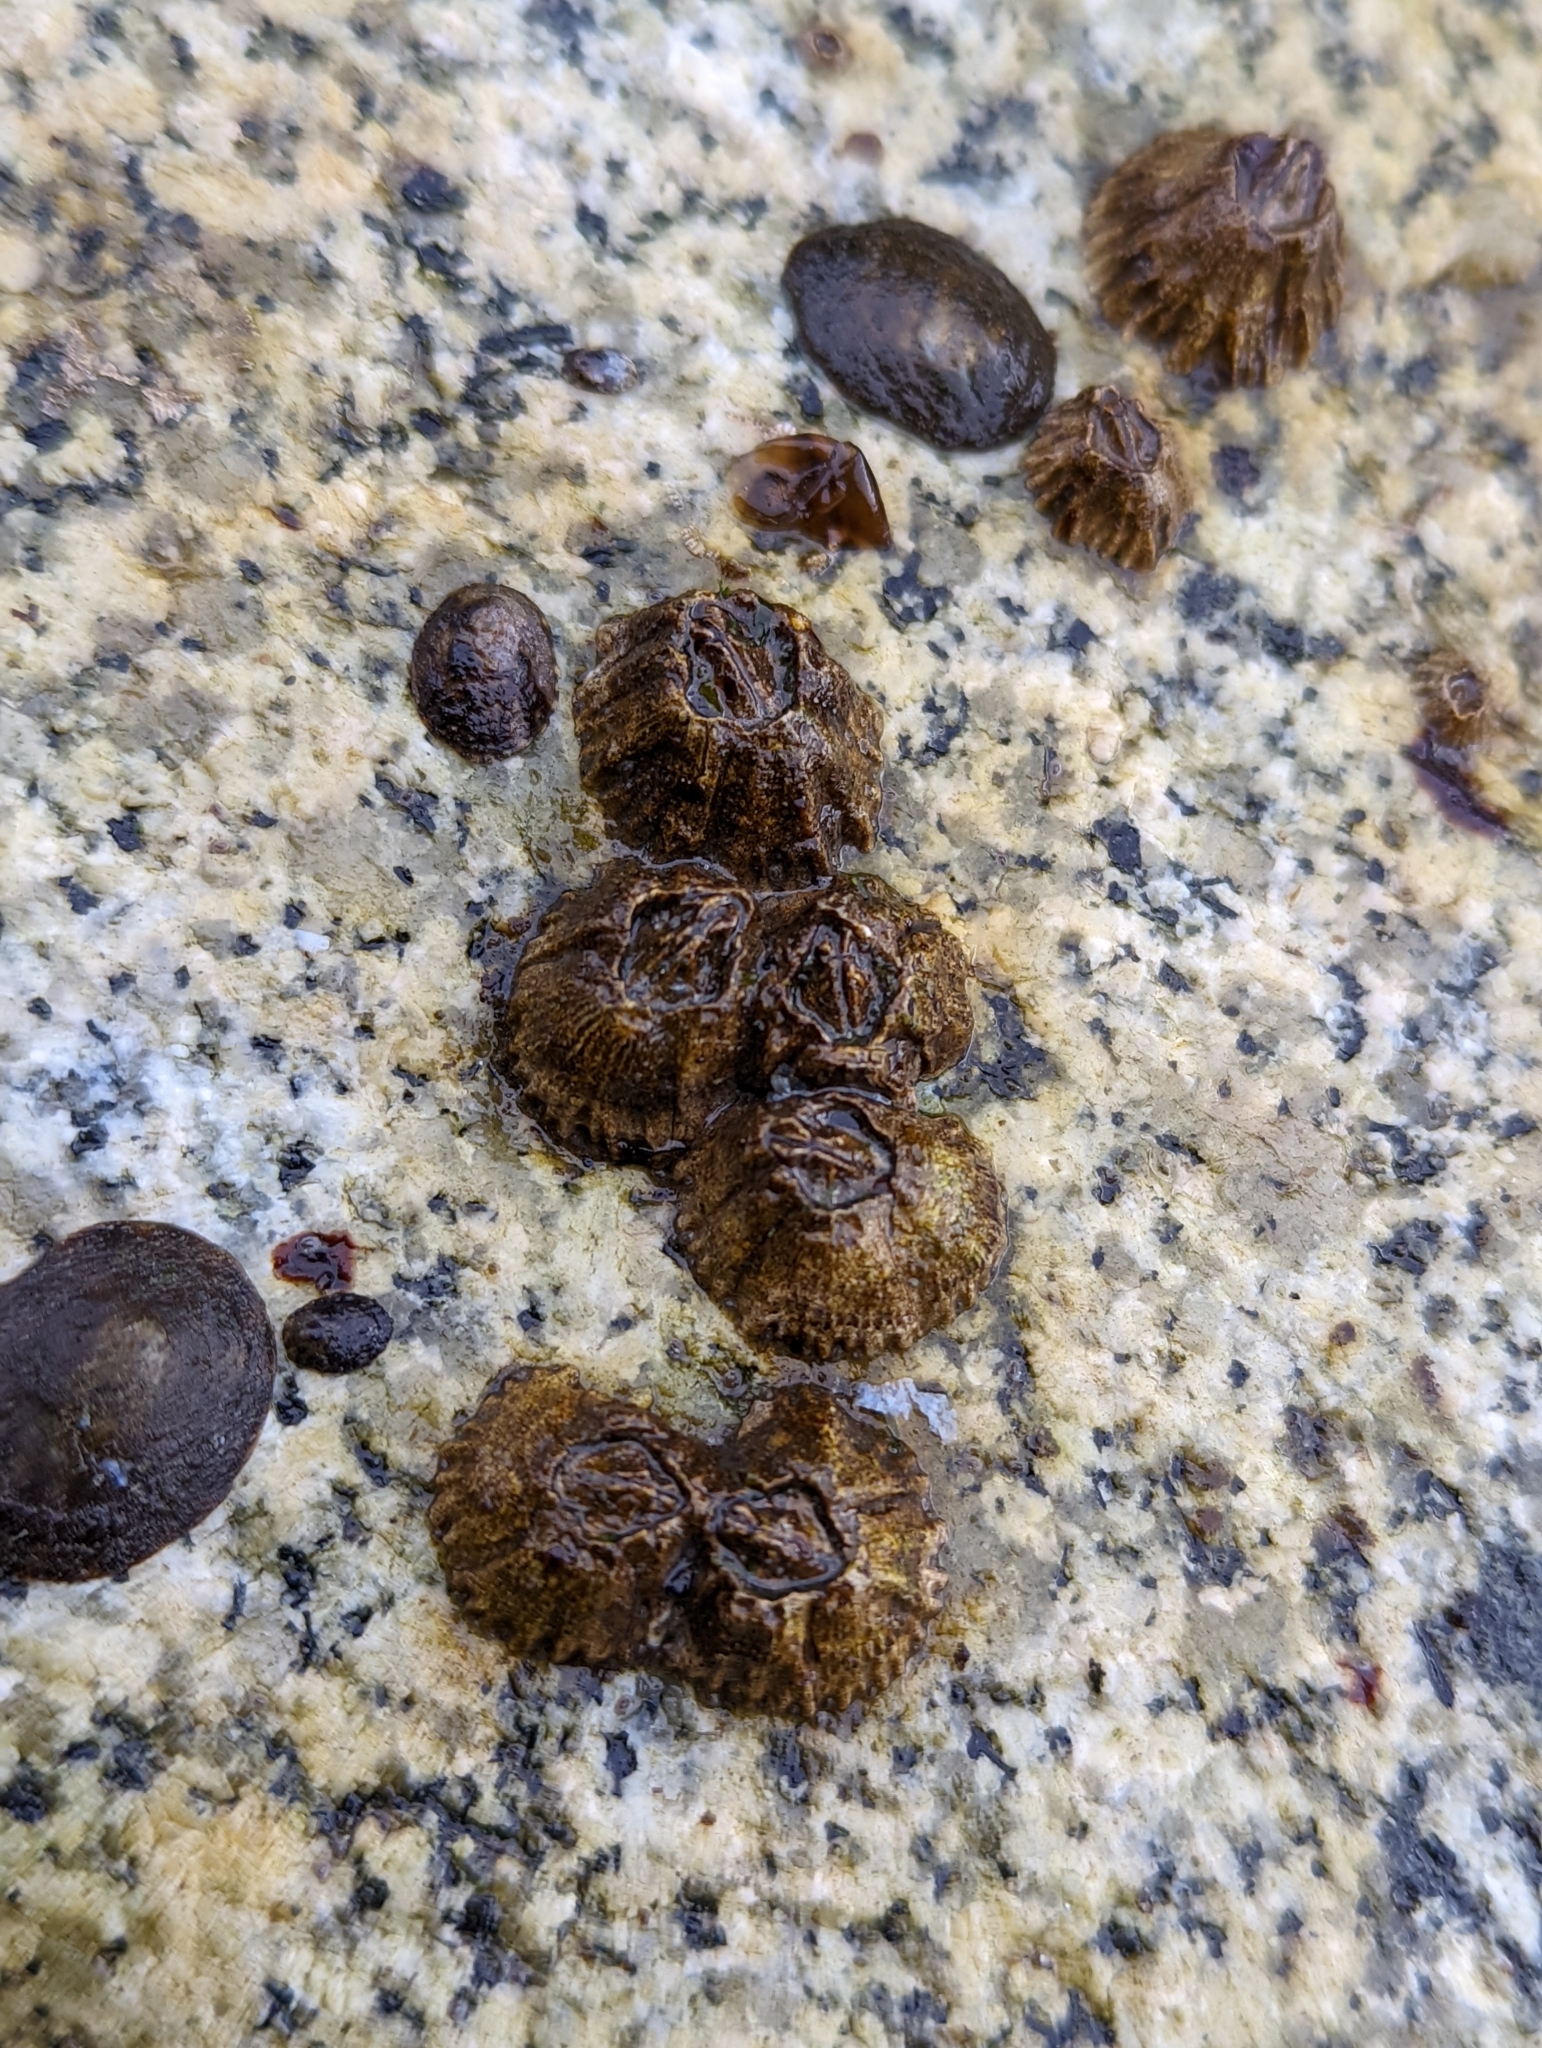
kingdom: Animalia
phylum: Arthropoda
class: Maxillopoda
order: Sessilia
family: Balanidae
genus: Balanus
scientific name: Balanus glandula
